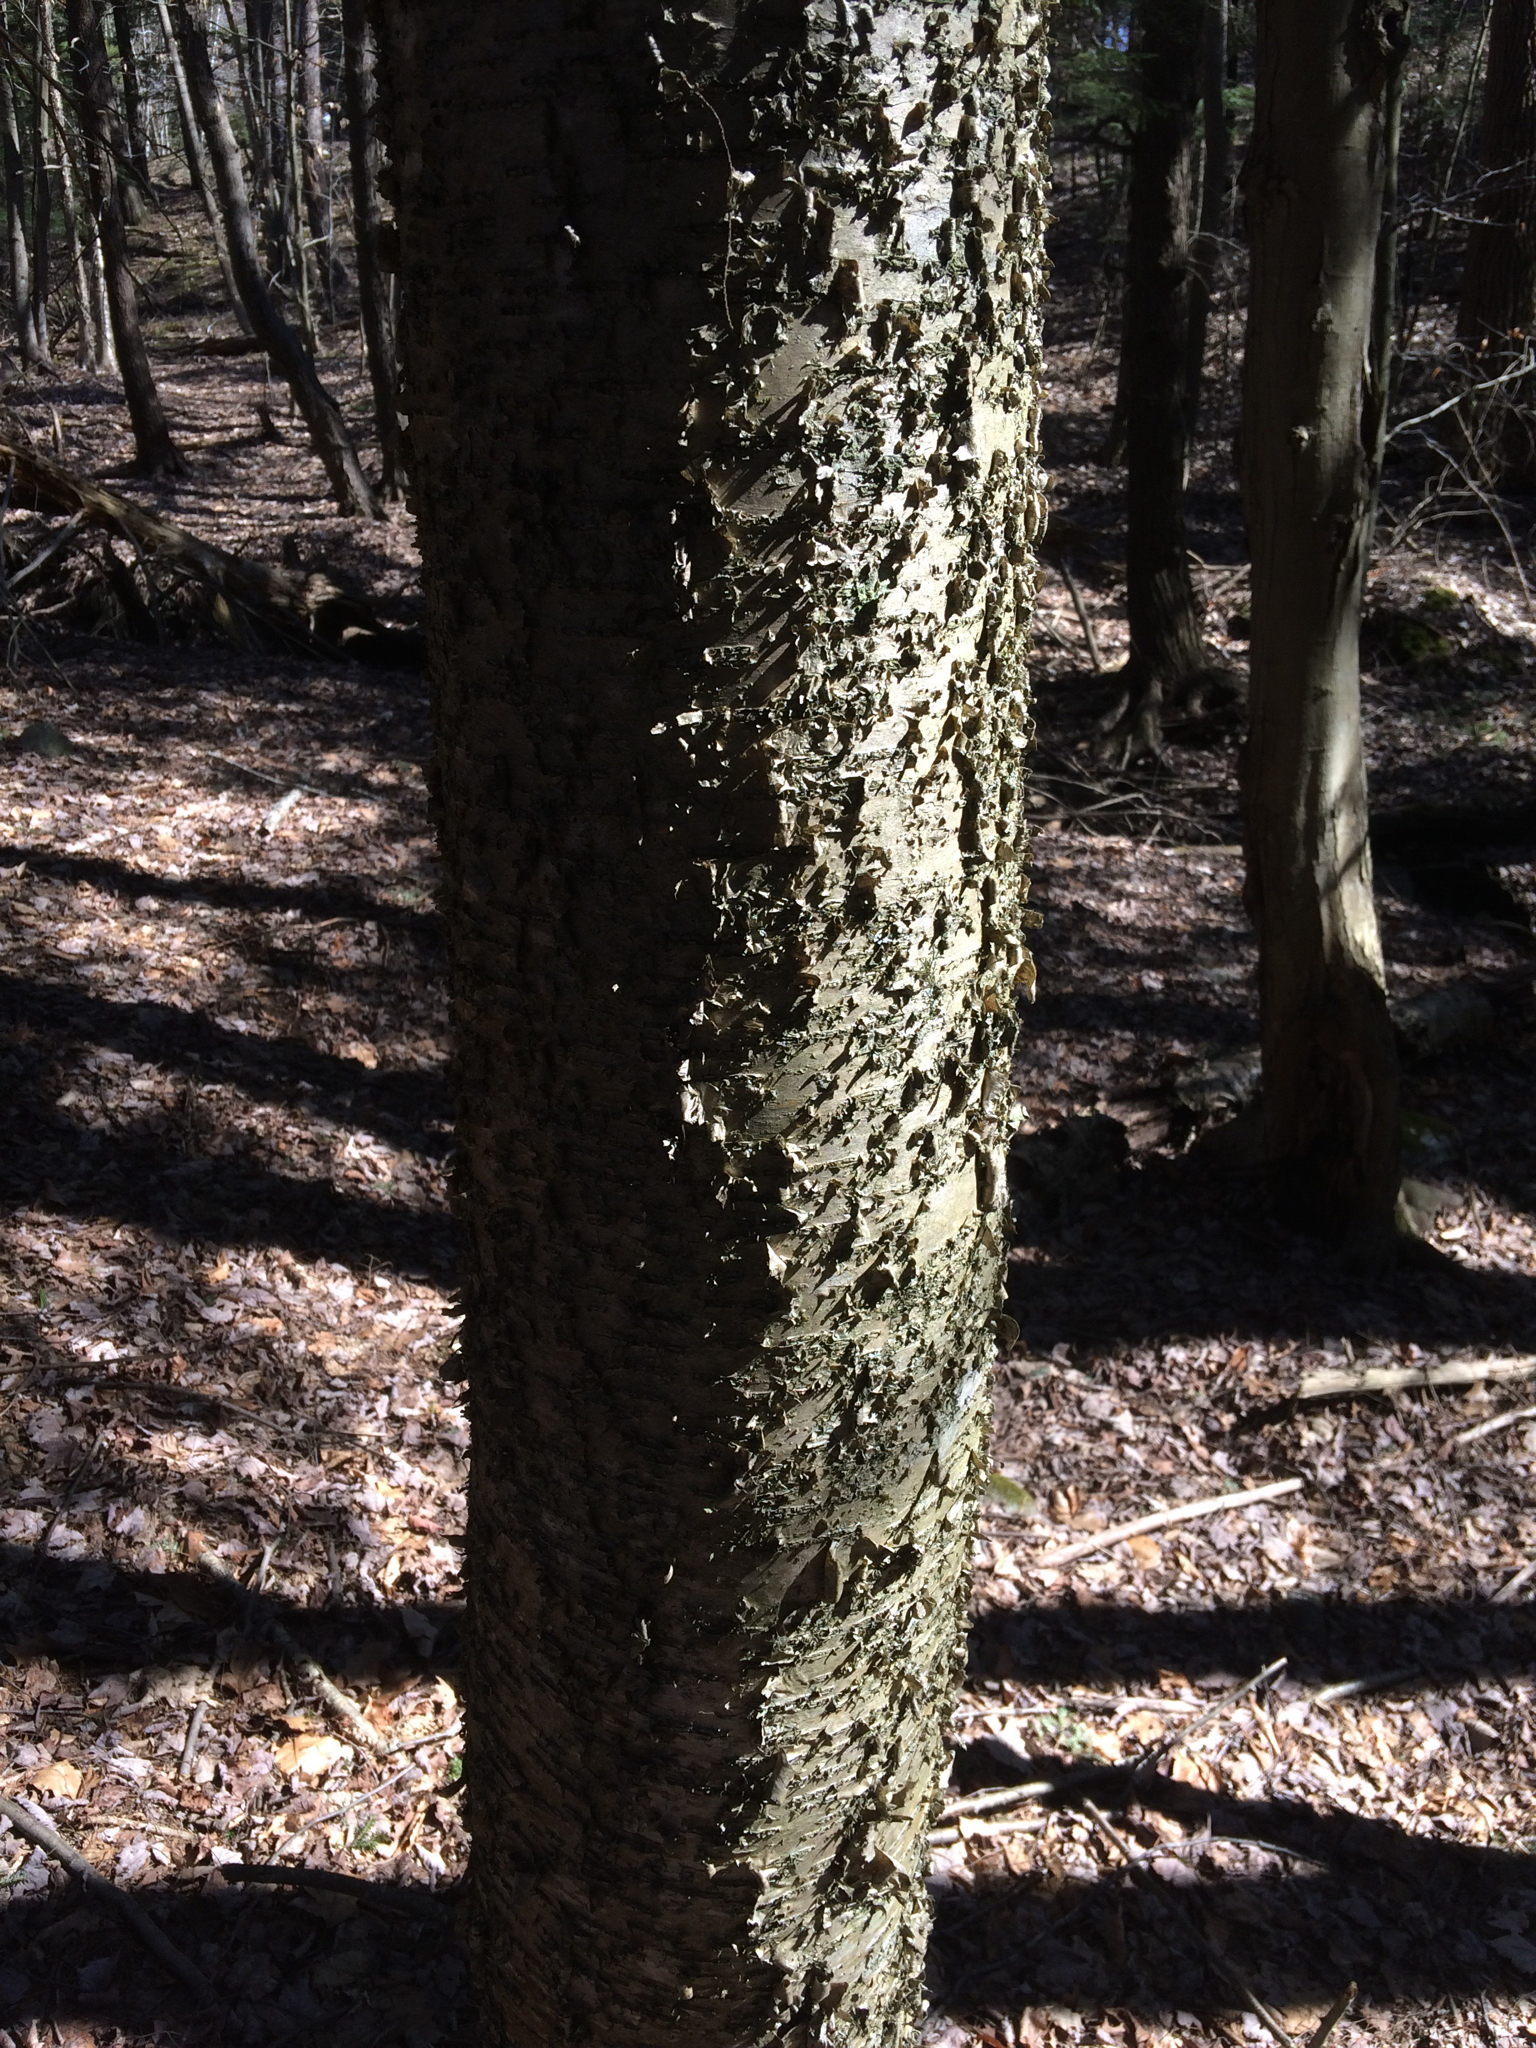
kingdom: Plantae
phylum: Tracheophyta
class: Magnoliopsida
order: Fagales
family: Betulaceae
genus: Betula
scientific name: Betula alleghaniensis
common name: Yellow birch
